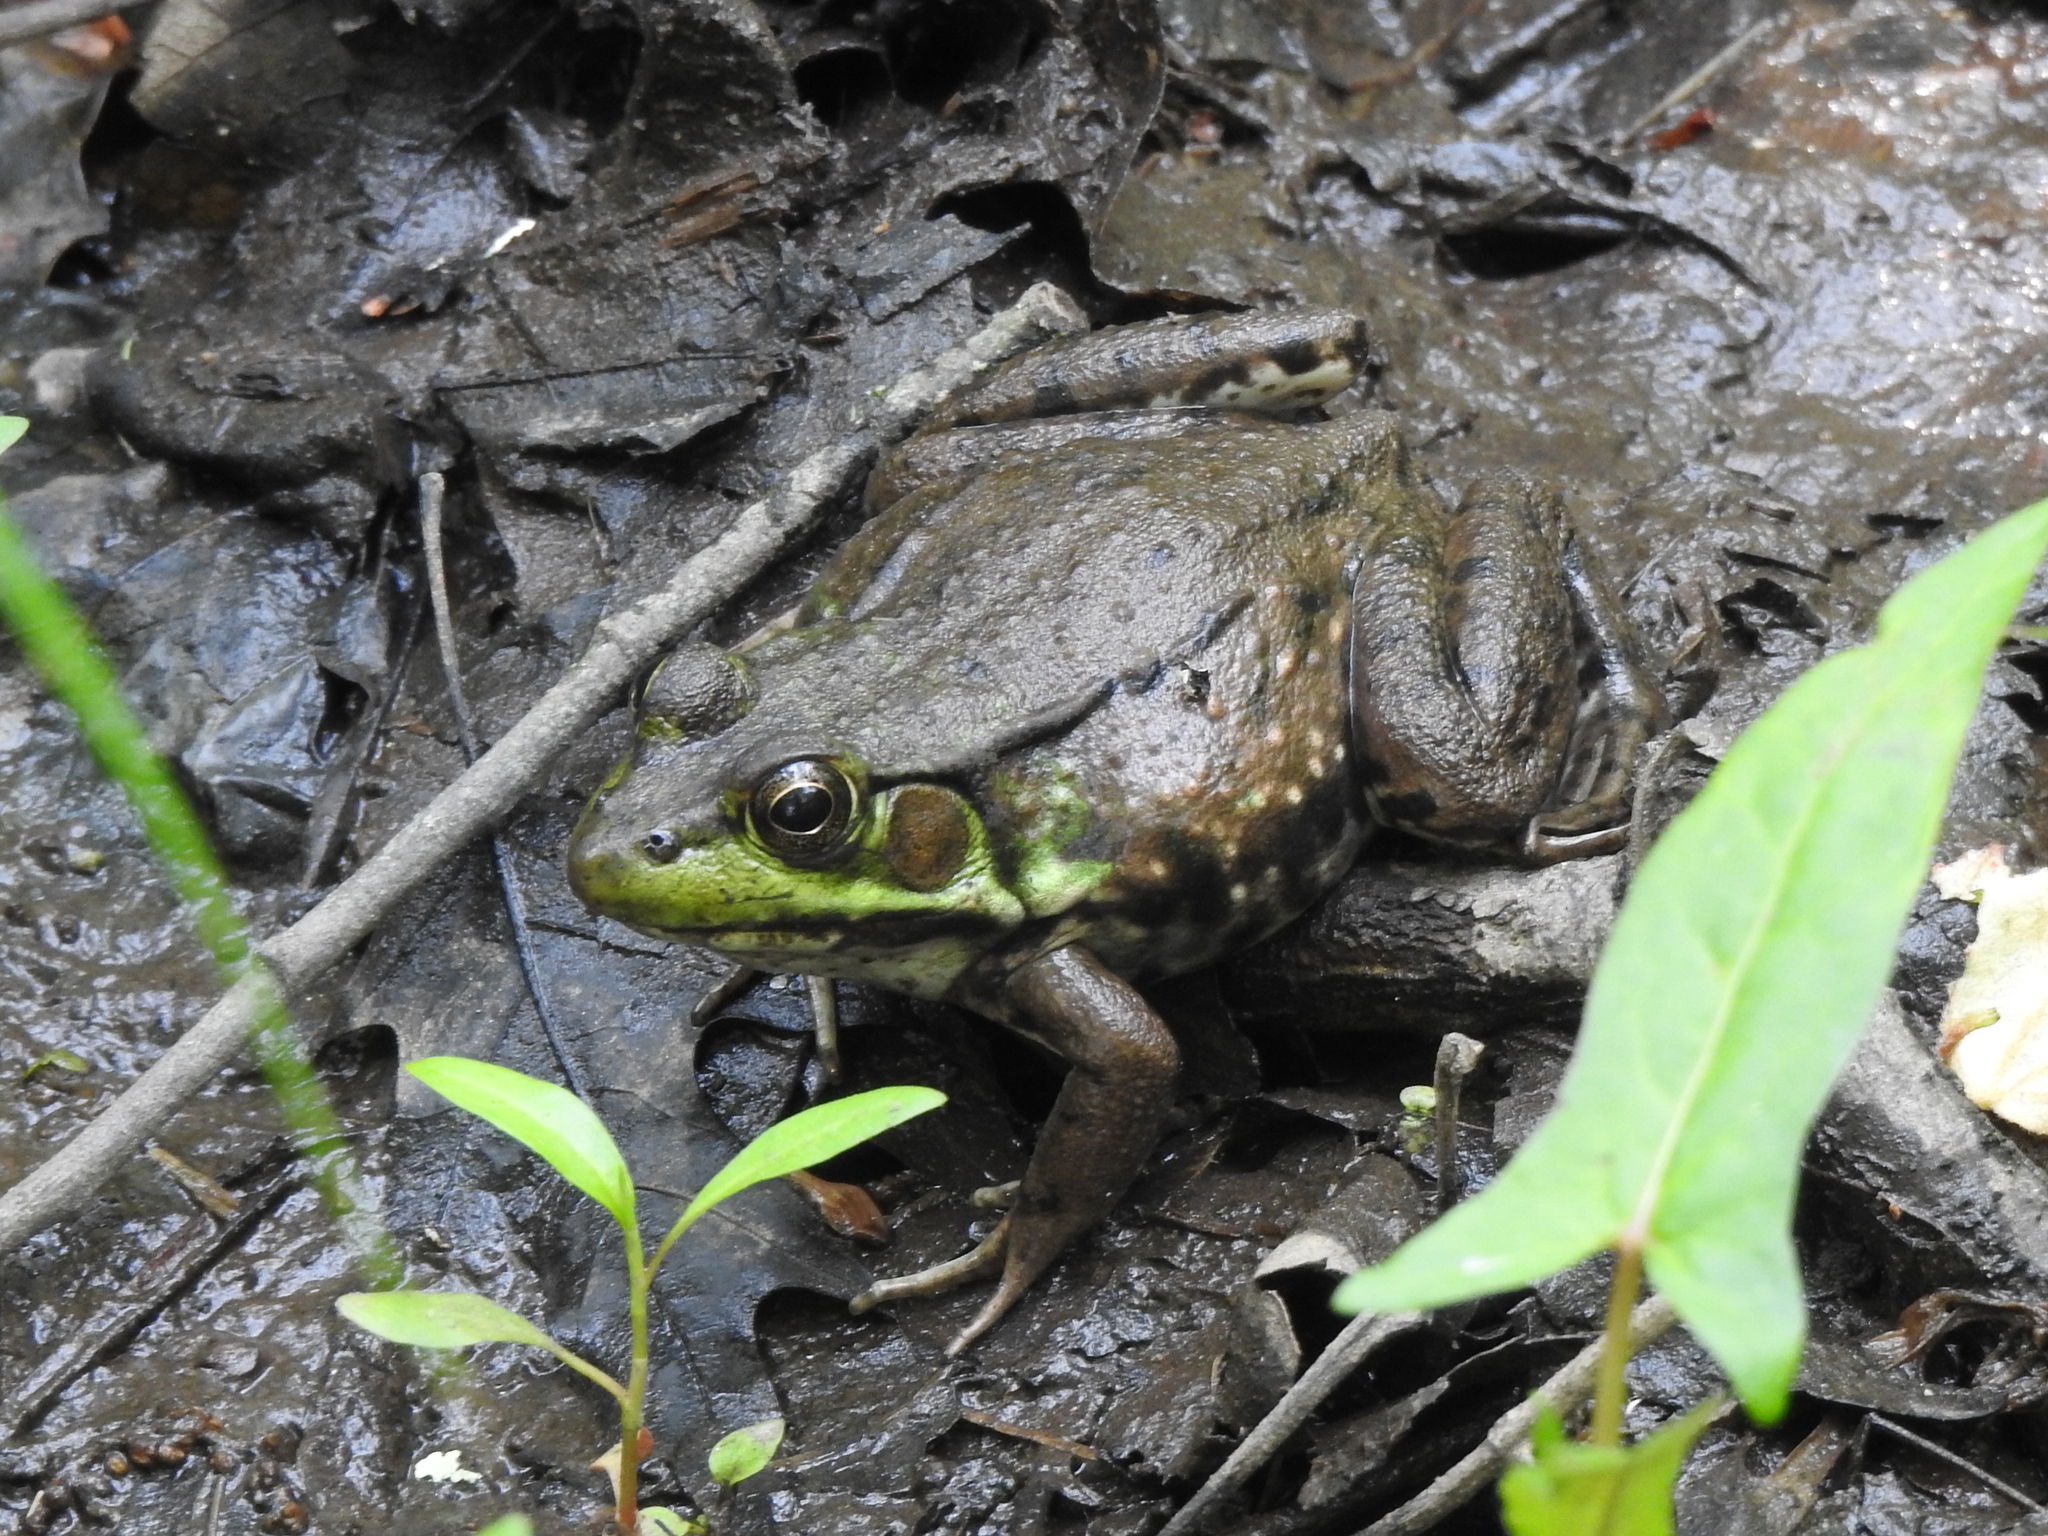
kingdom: Animalia
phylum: Chordata
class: Amphibia
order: Anura
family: Ranidae
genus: Lithobates
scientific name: Lithobates clamitans
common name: Green frog
